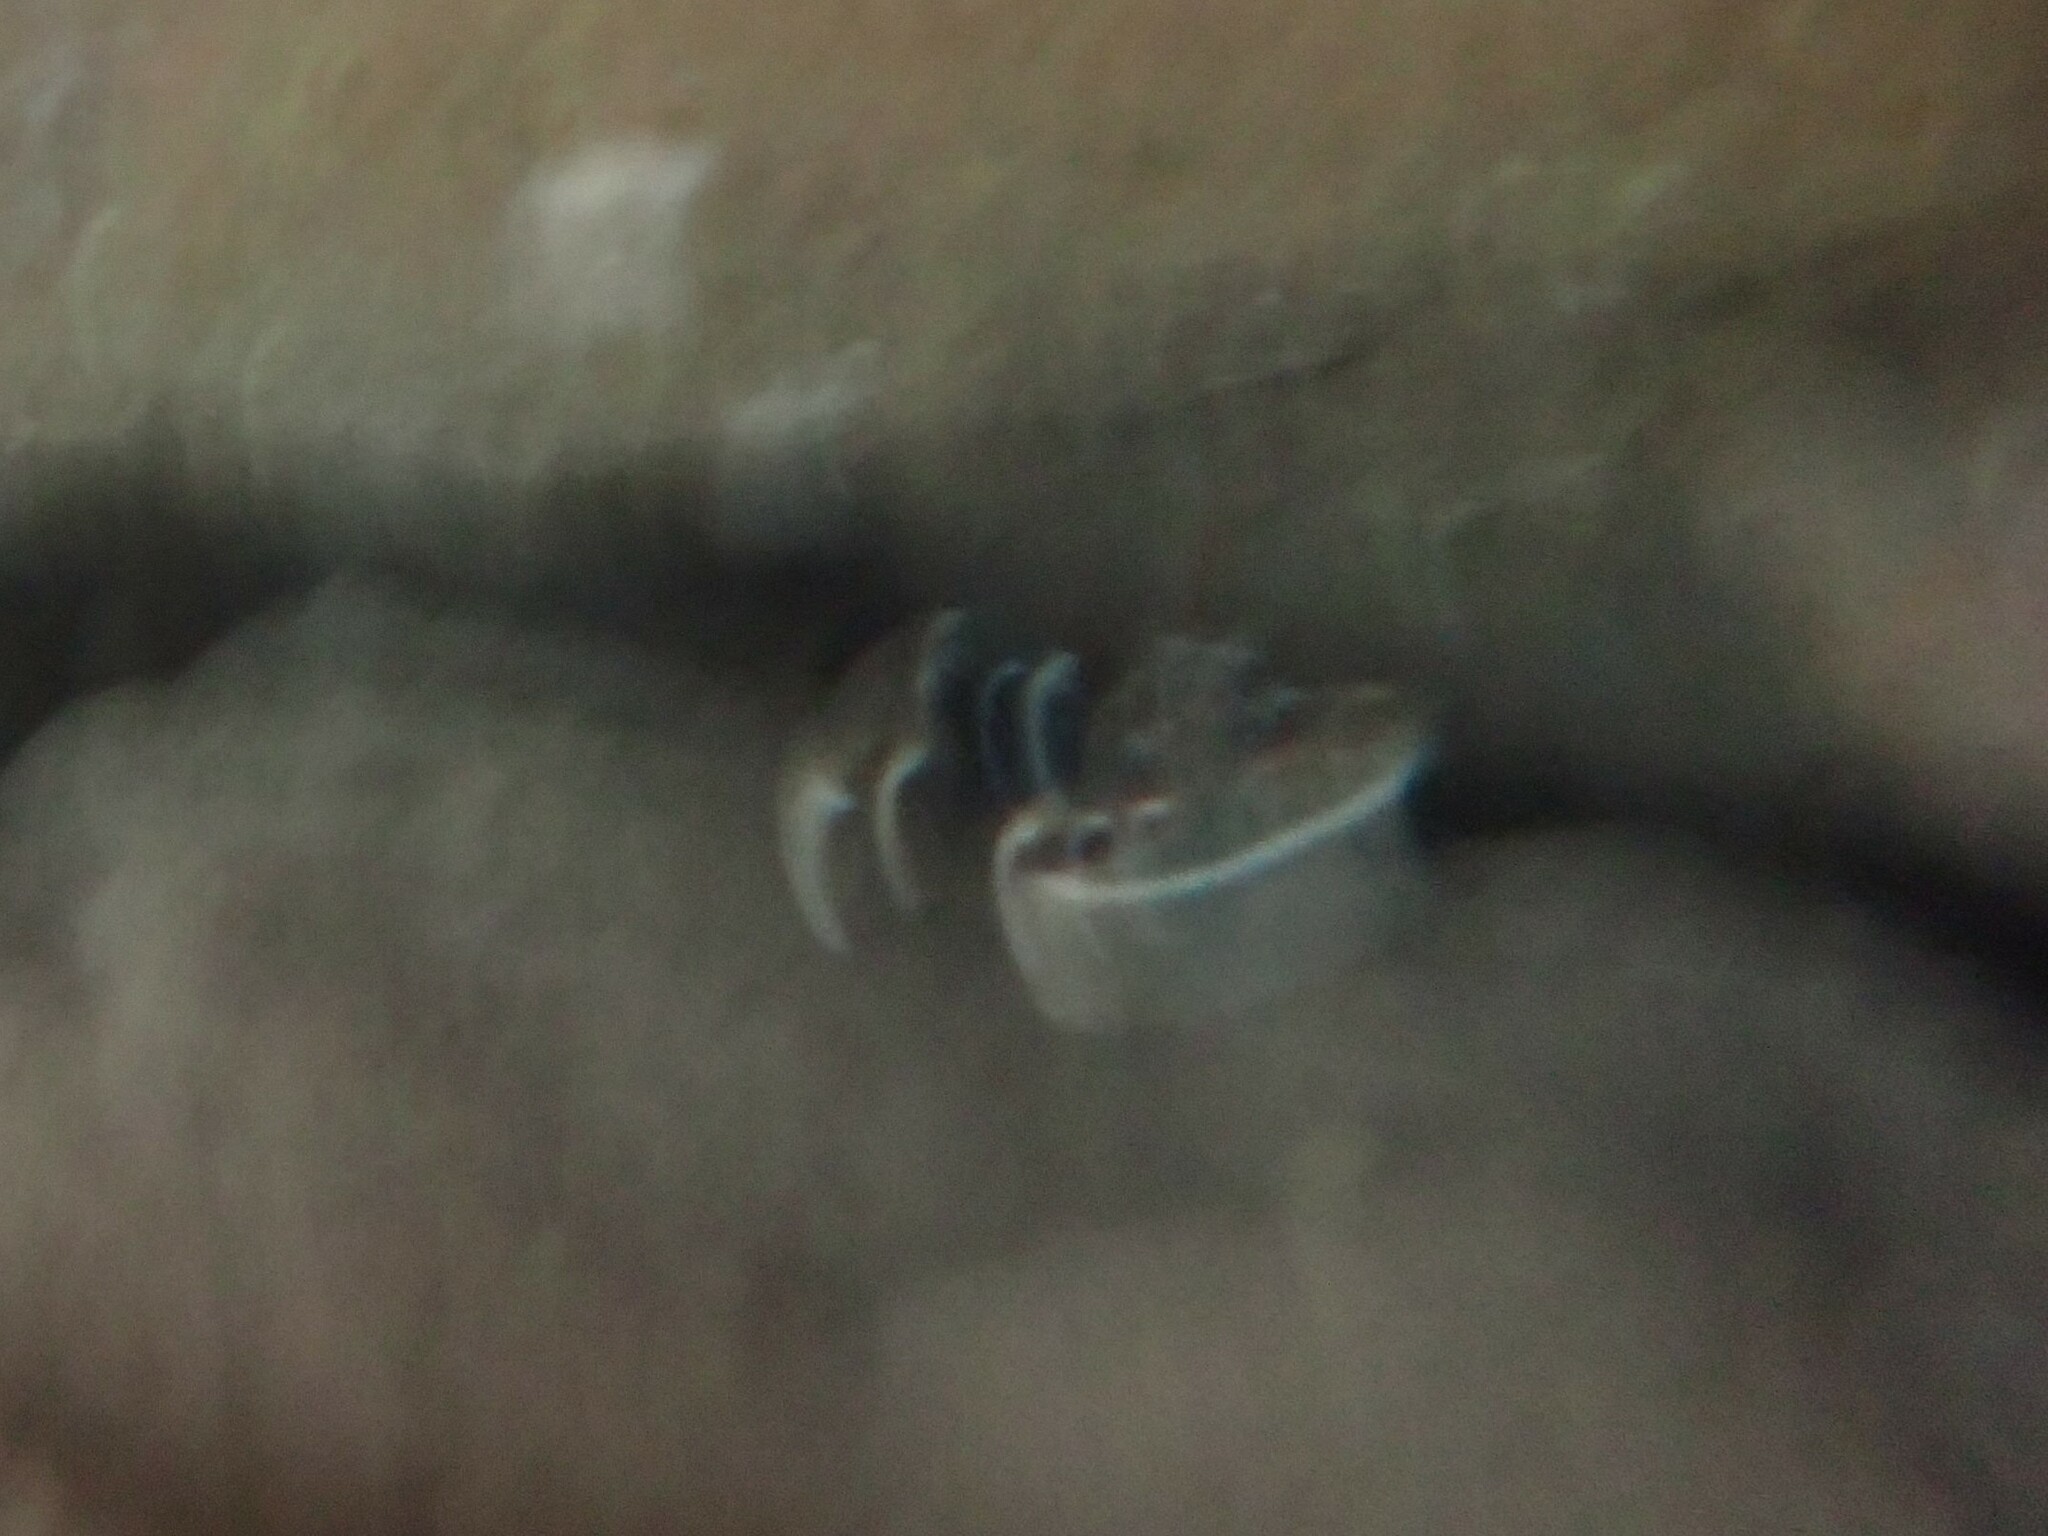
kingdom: Animalia
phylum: Arthropoda
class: Malacostraca
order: Decapoda
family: Nephropidae
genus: Homarus
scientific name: Homarus gammarus
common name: European lobster
